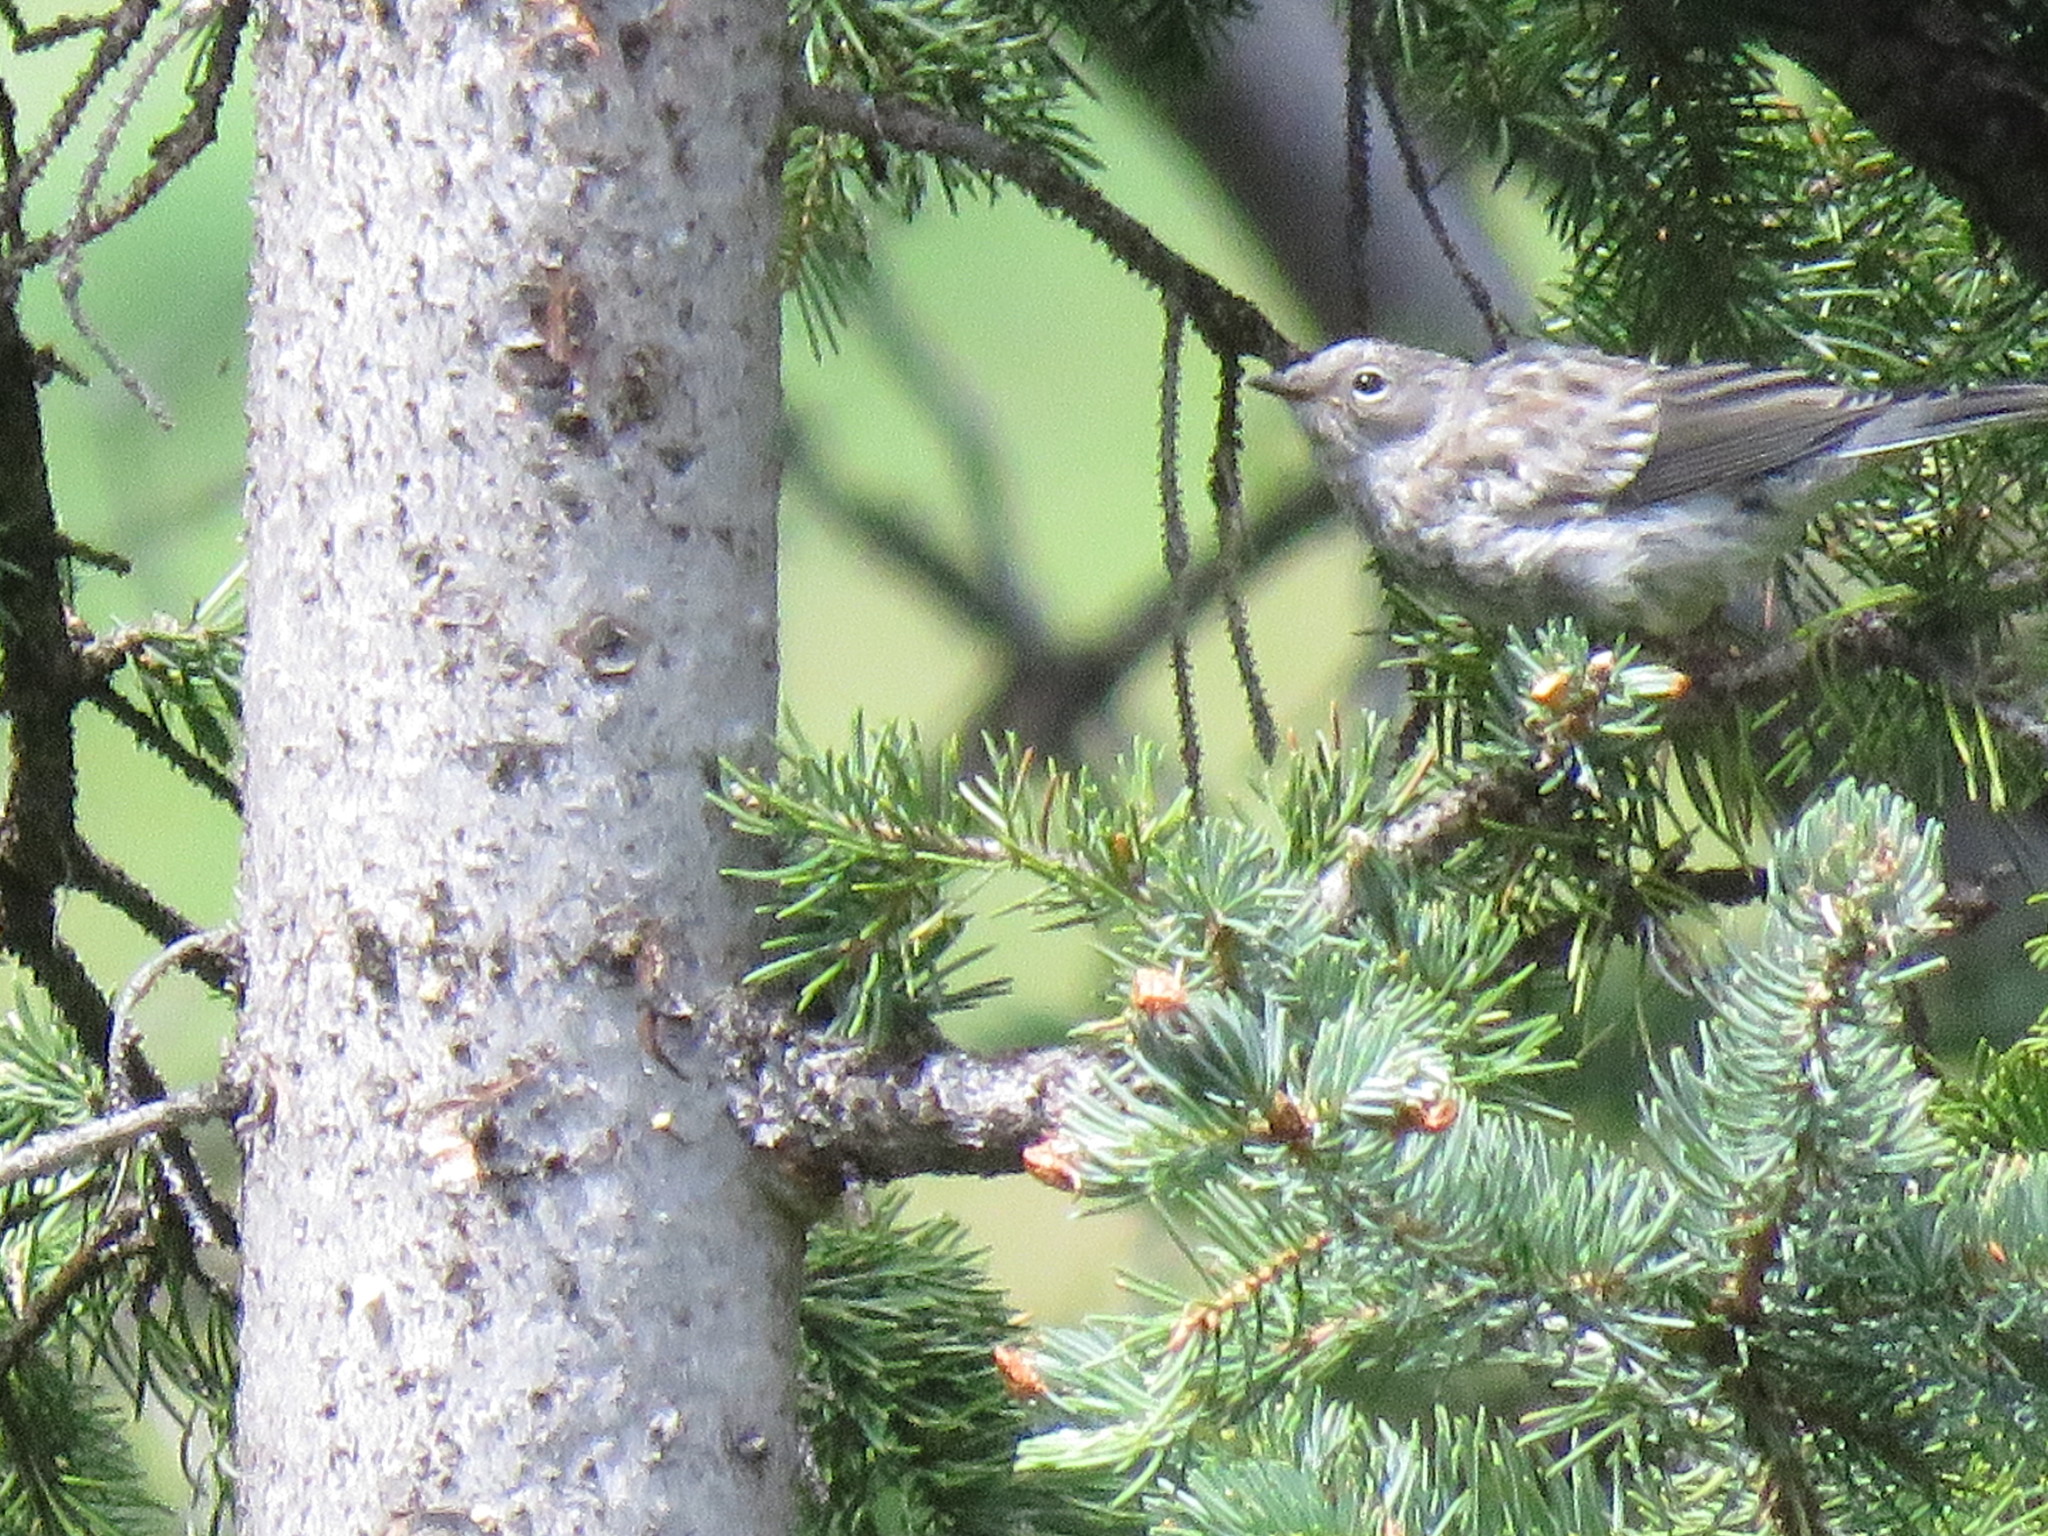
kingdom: Animalia
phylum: Chordata
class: Aves
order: Passeriformes
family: Parulidae
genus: Setophaga
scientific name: Setophaga coronata
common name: Myrtle warbler
